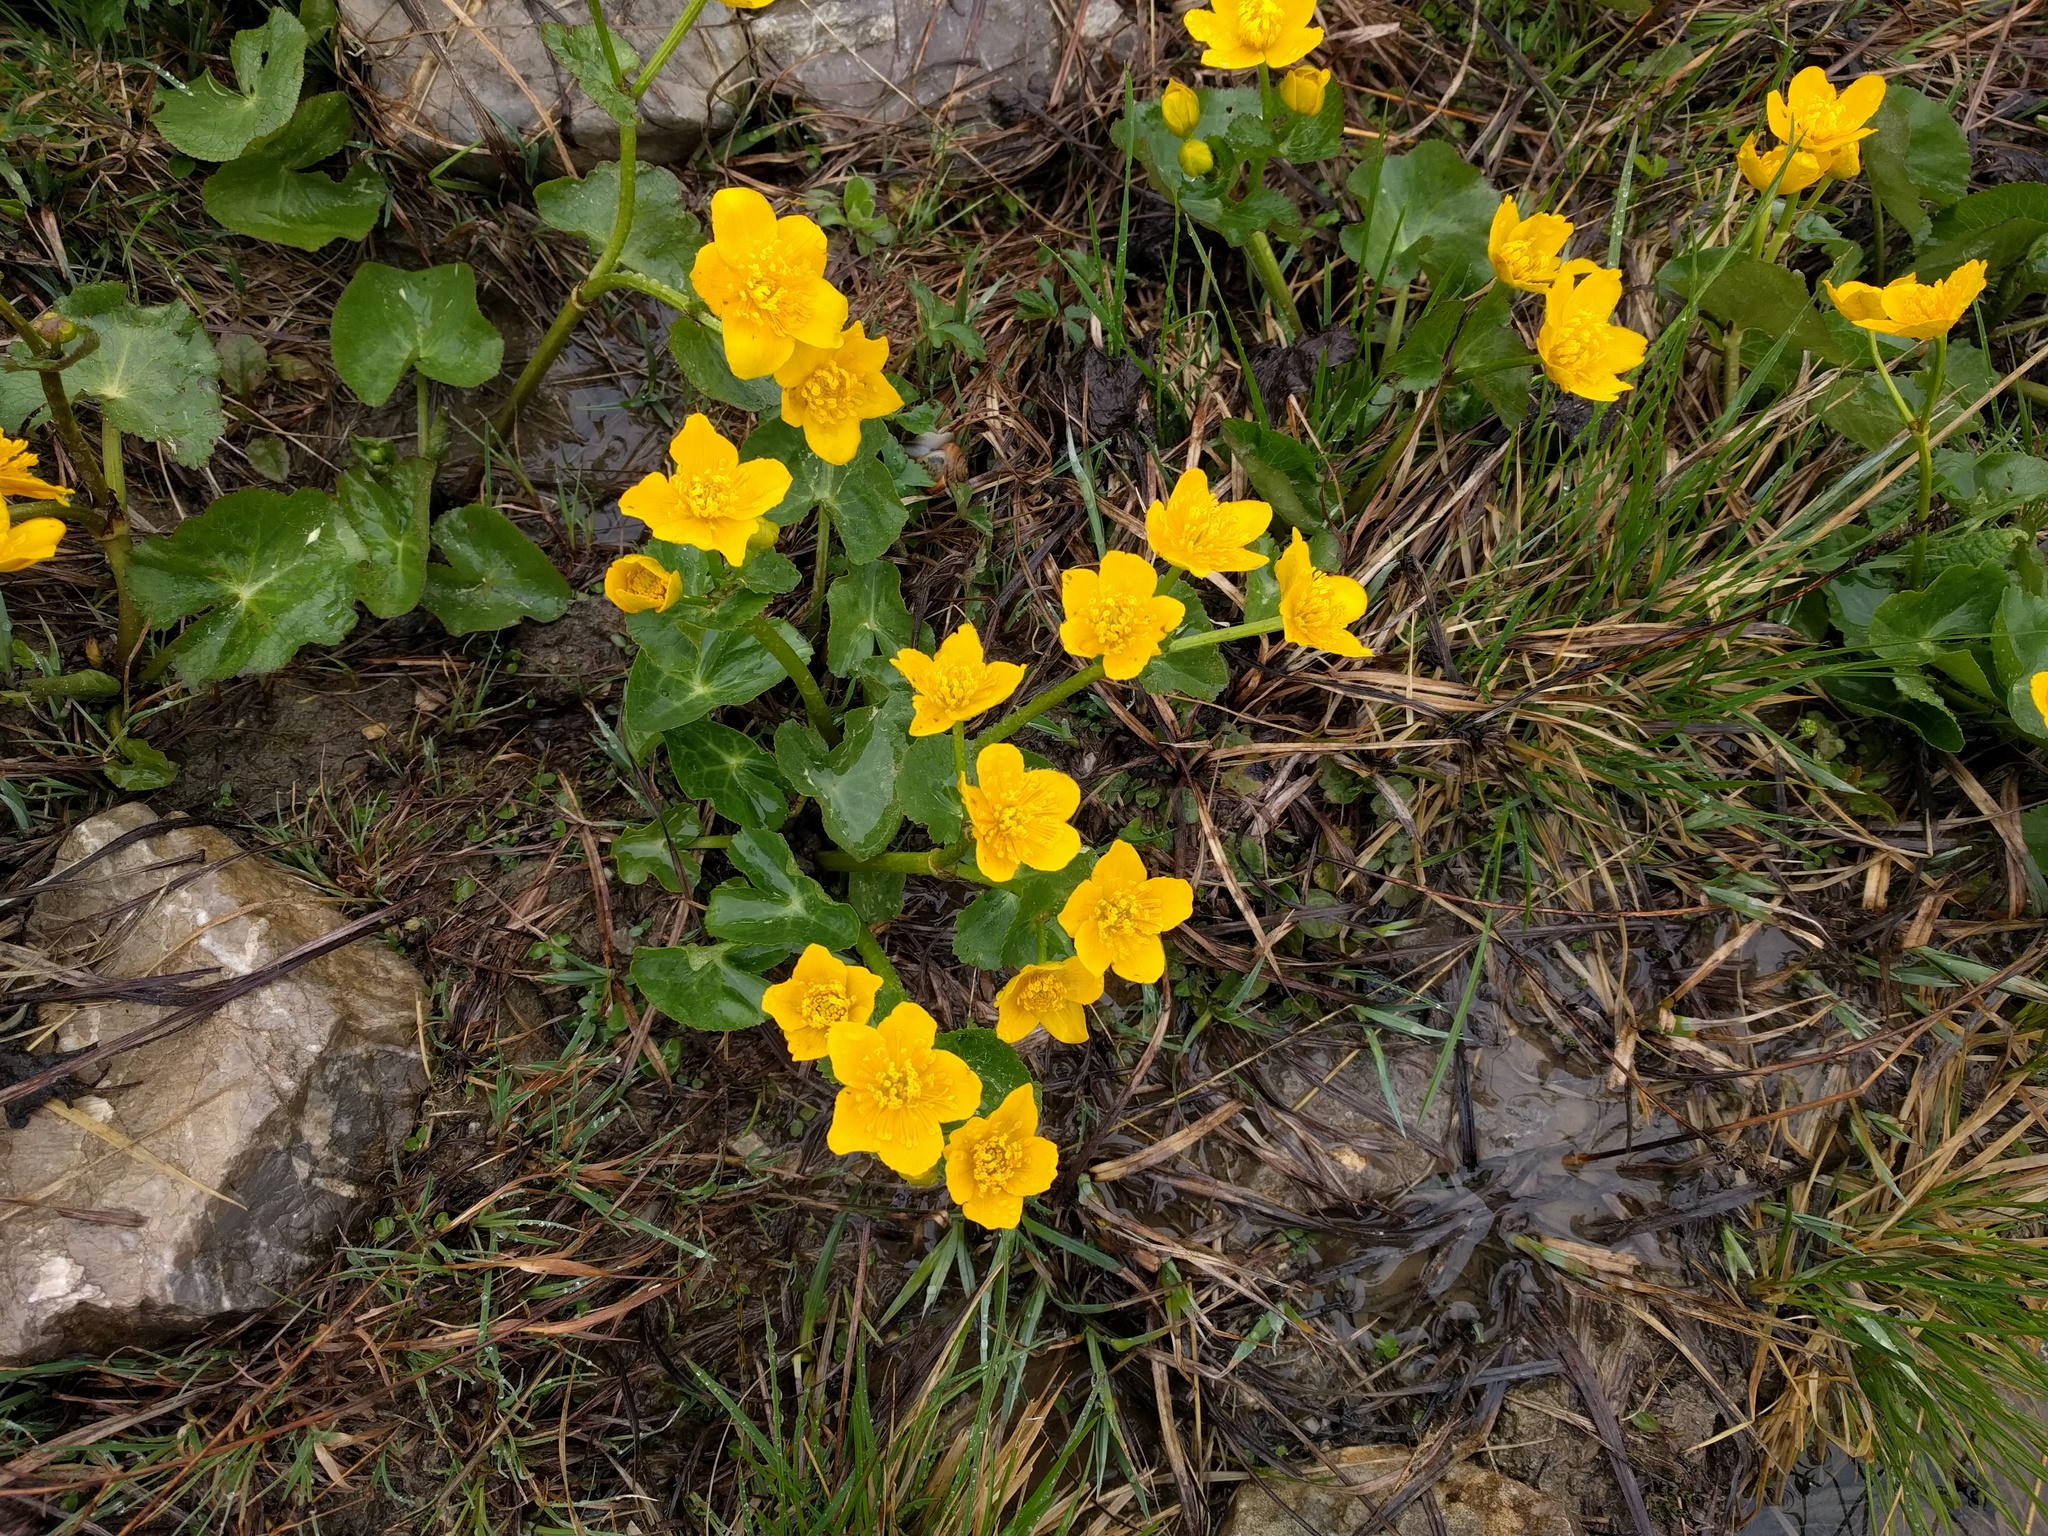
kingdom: Plantae
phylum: Tracheophyta
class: Magnoliopsida
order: Ranunculales
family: Ranunculaceae
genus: Caltha
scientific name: Caltha palustris
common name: Marsh marigold
